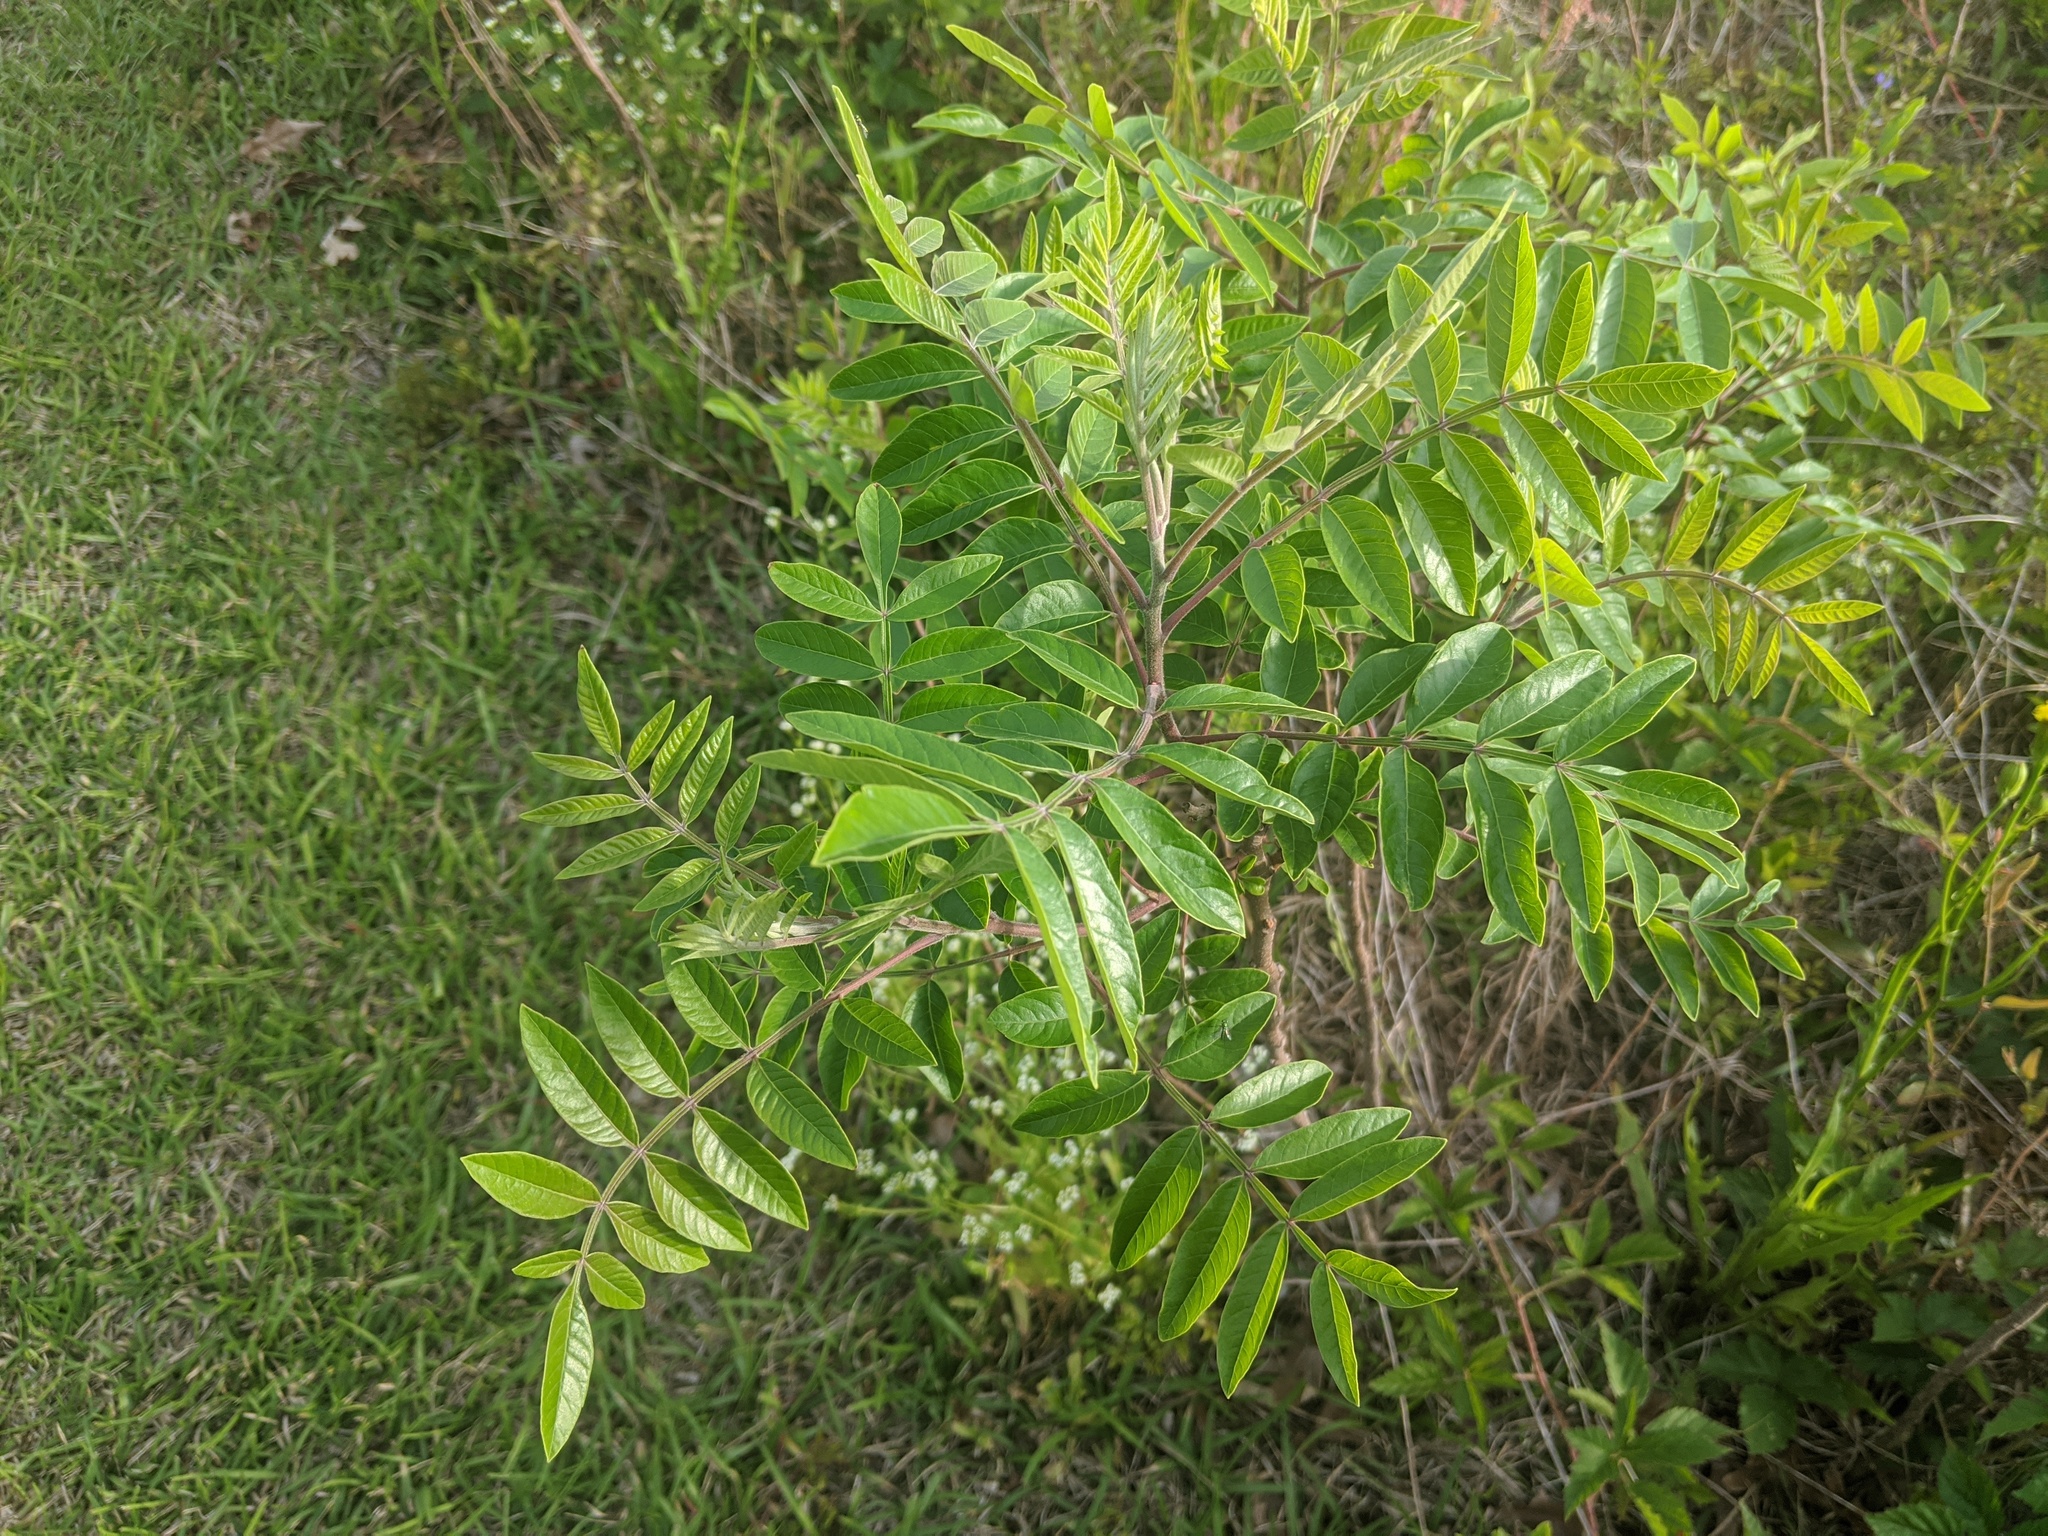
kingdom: Plantae
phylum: Tracheophyta
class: Magnoliopsida
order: Sapindales
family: Anacardiaceae
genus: Rhus
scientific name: Rhus copallina
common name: Shining sumac
